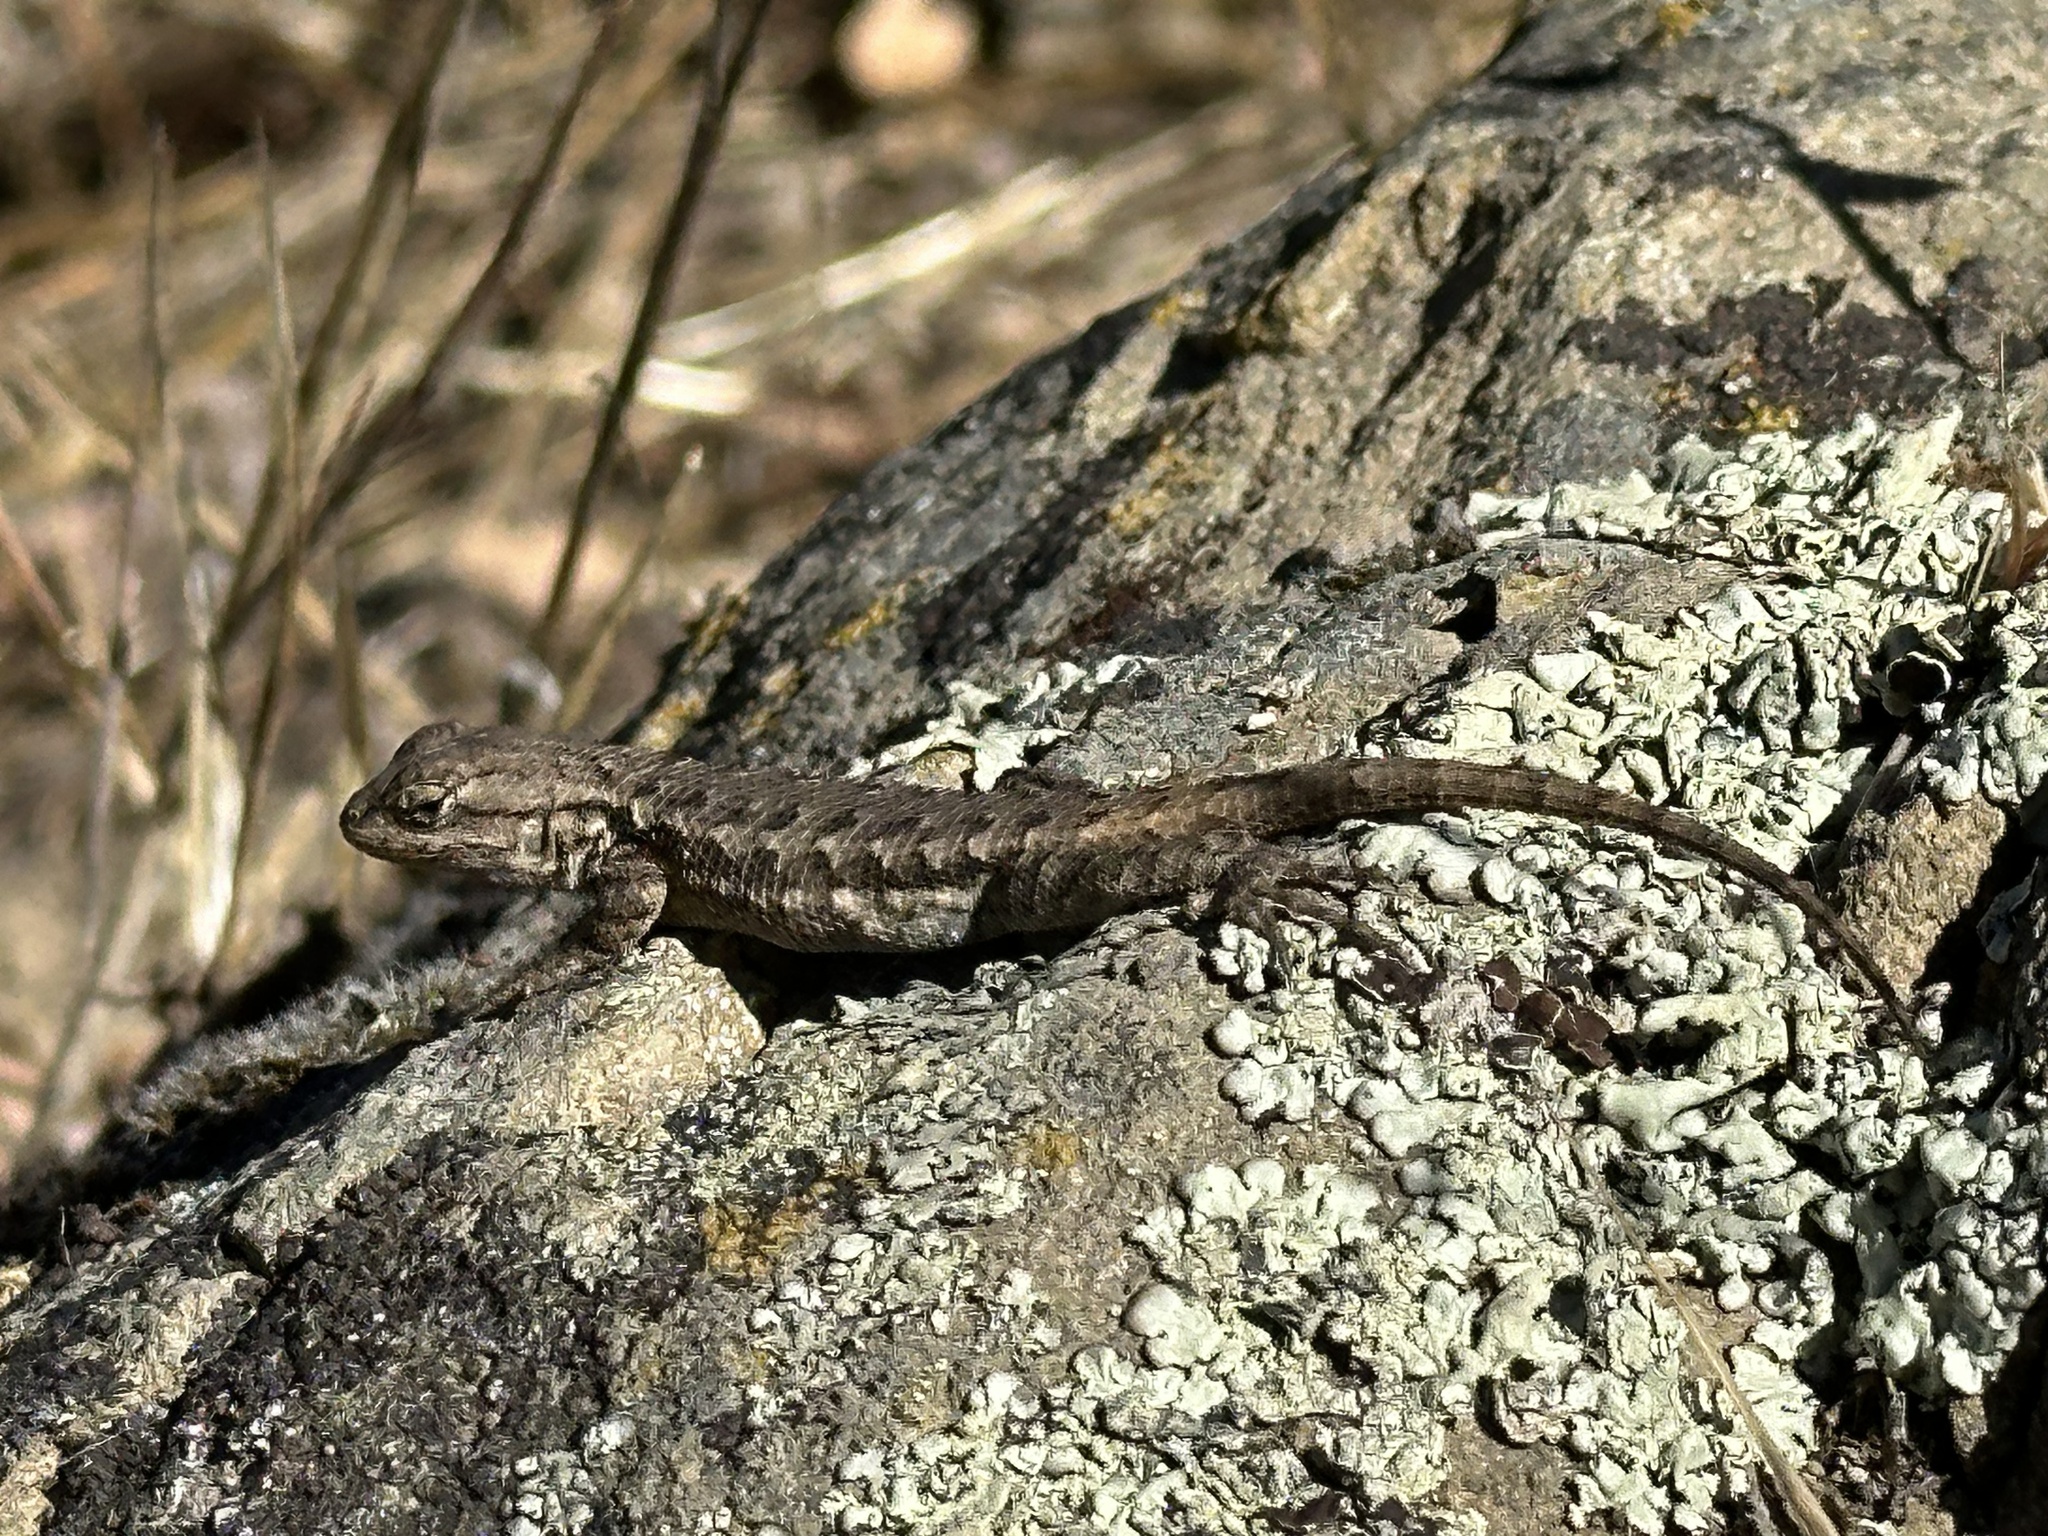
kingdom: Animalia
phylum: Chordata
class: Squamata
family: Phrynosomatidae
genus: Sceloporus
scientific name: Sceloporus occidentalis
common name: Western fence lizard
